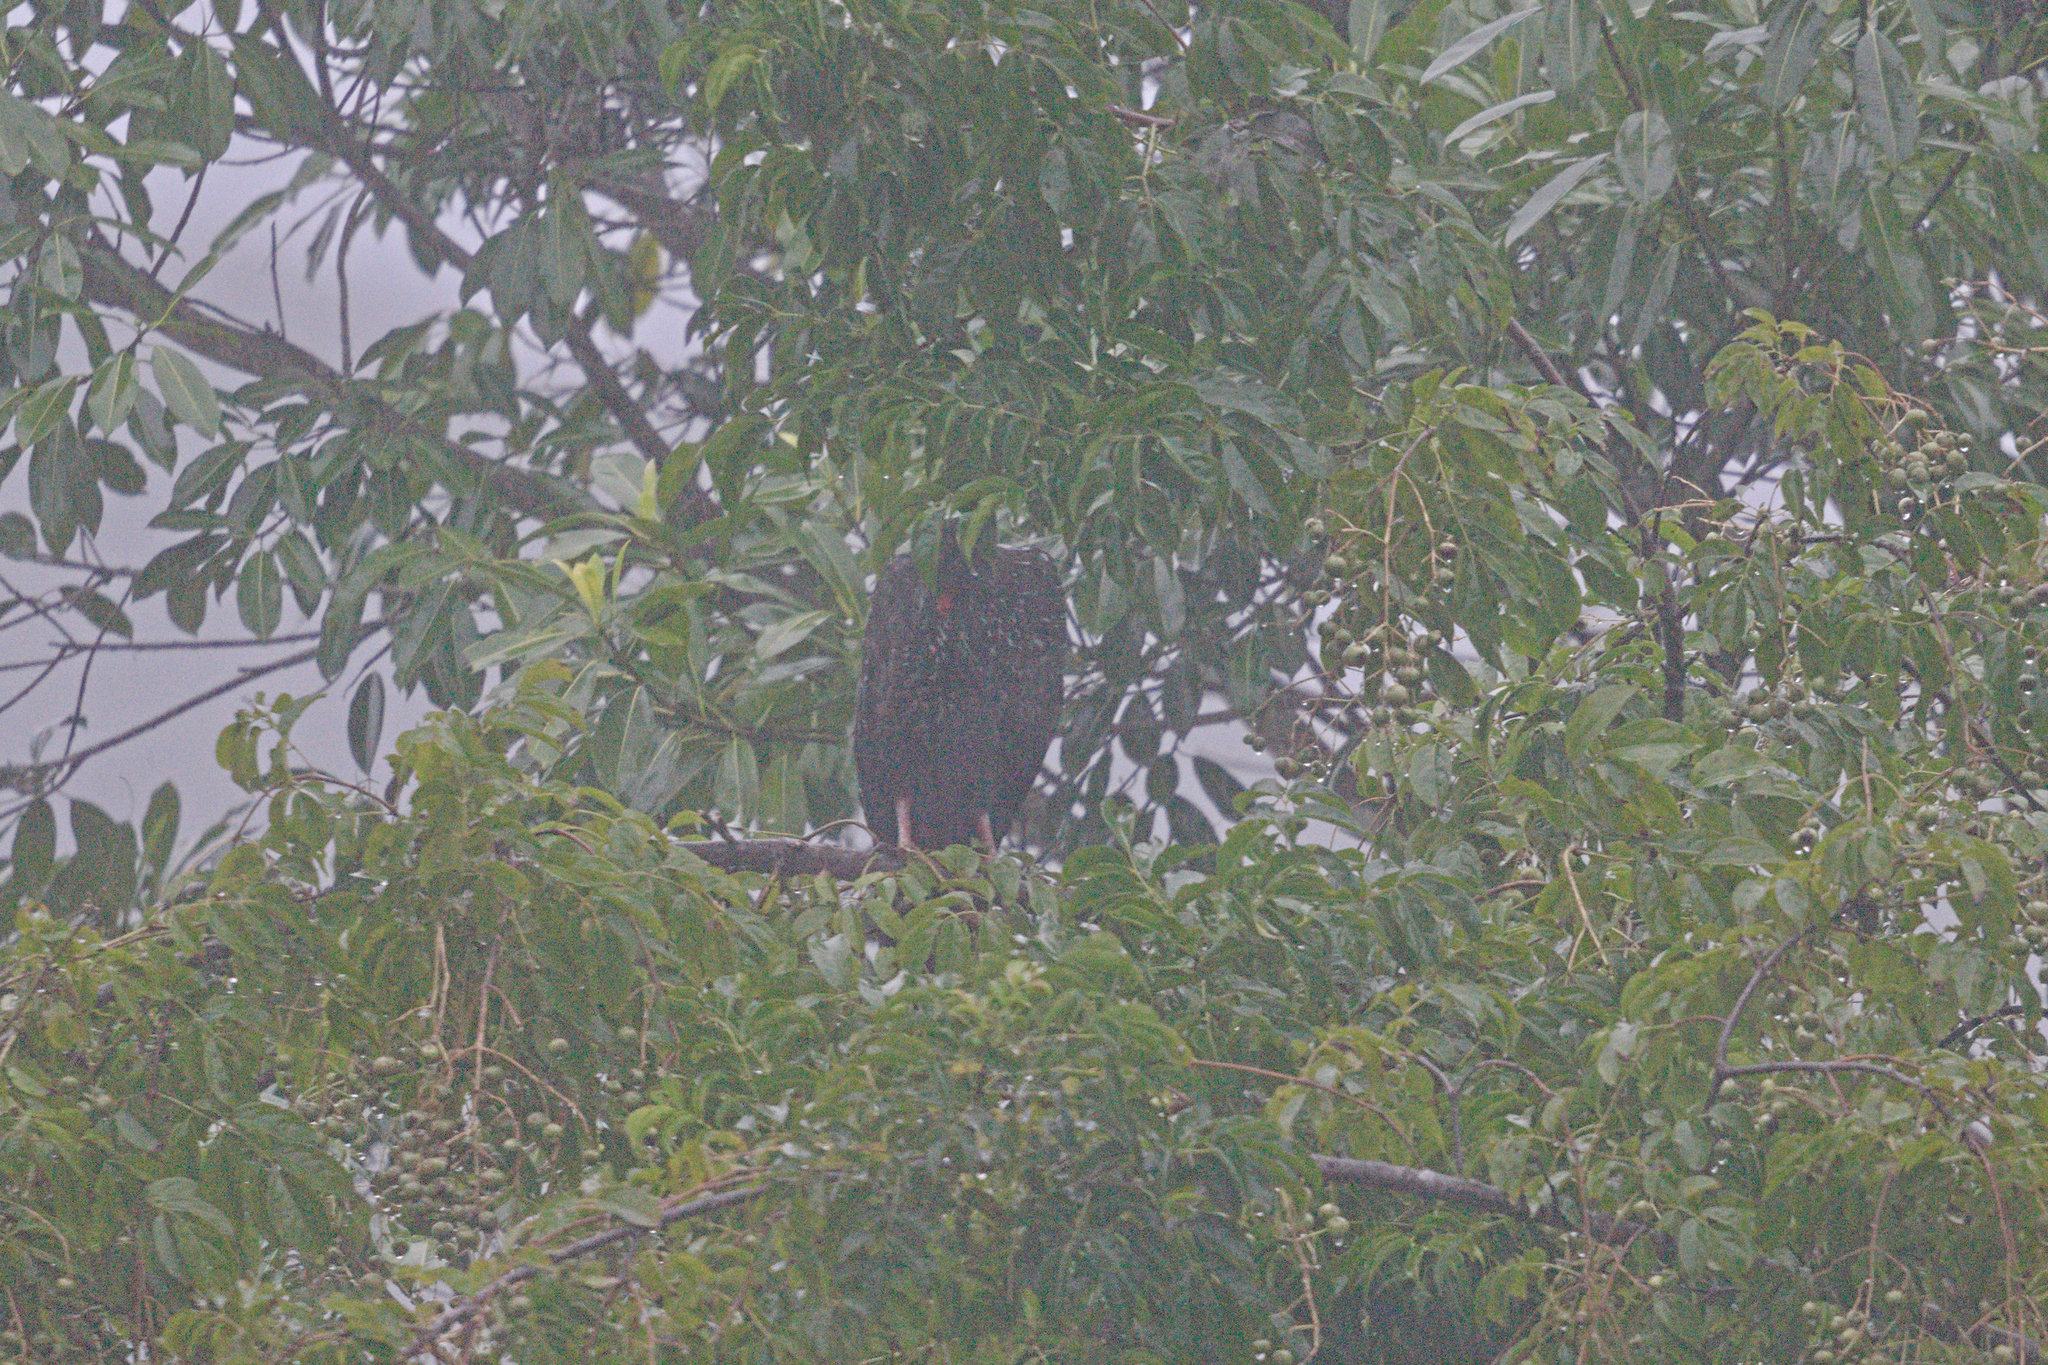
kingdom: Animalia
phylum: Chordata
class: Aves
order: Galliformes
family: Cracidae
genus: Penelope
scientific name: Penelope purpurascens
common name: Crested guan
